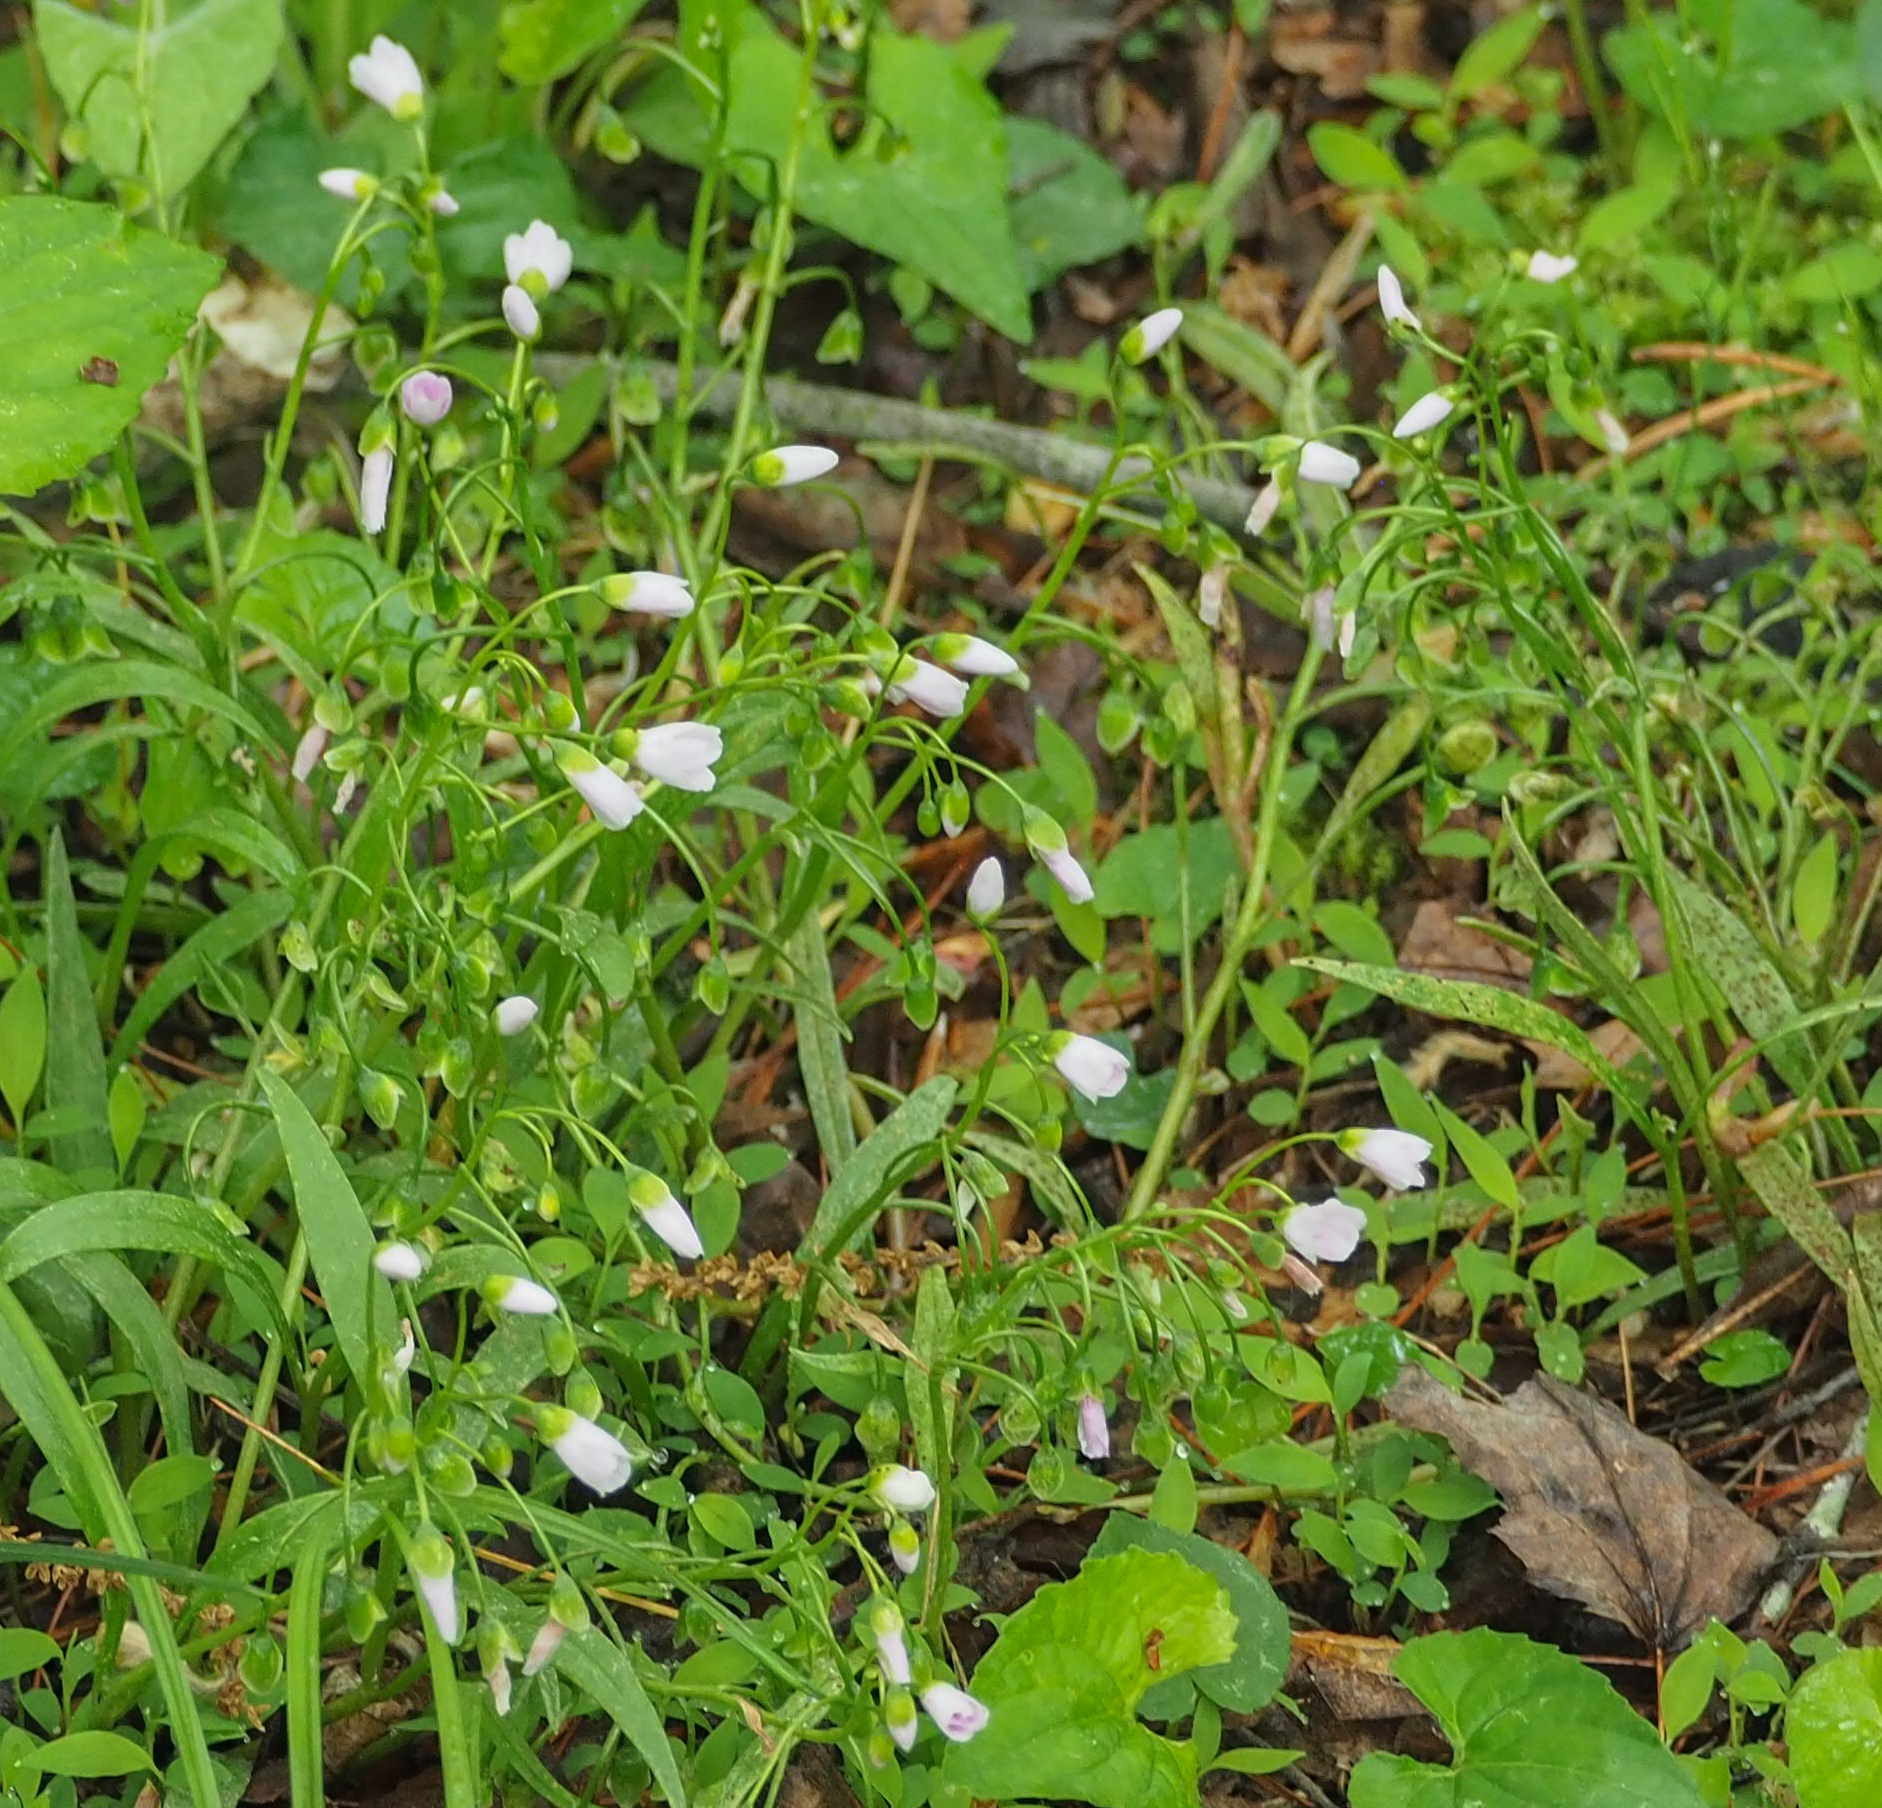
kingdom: Plantae
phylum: Tracheophyta
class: Magnoliopsida
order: Caryophyllales
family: Montiaceae
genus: Claytonia
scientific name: Claytonia virginica
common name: Virginia springbeauty
